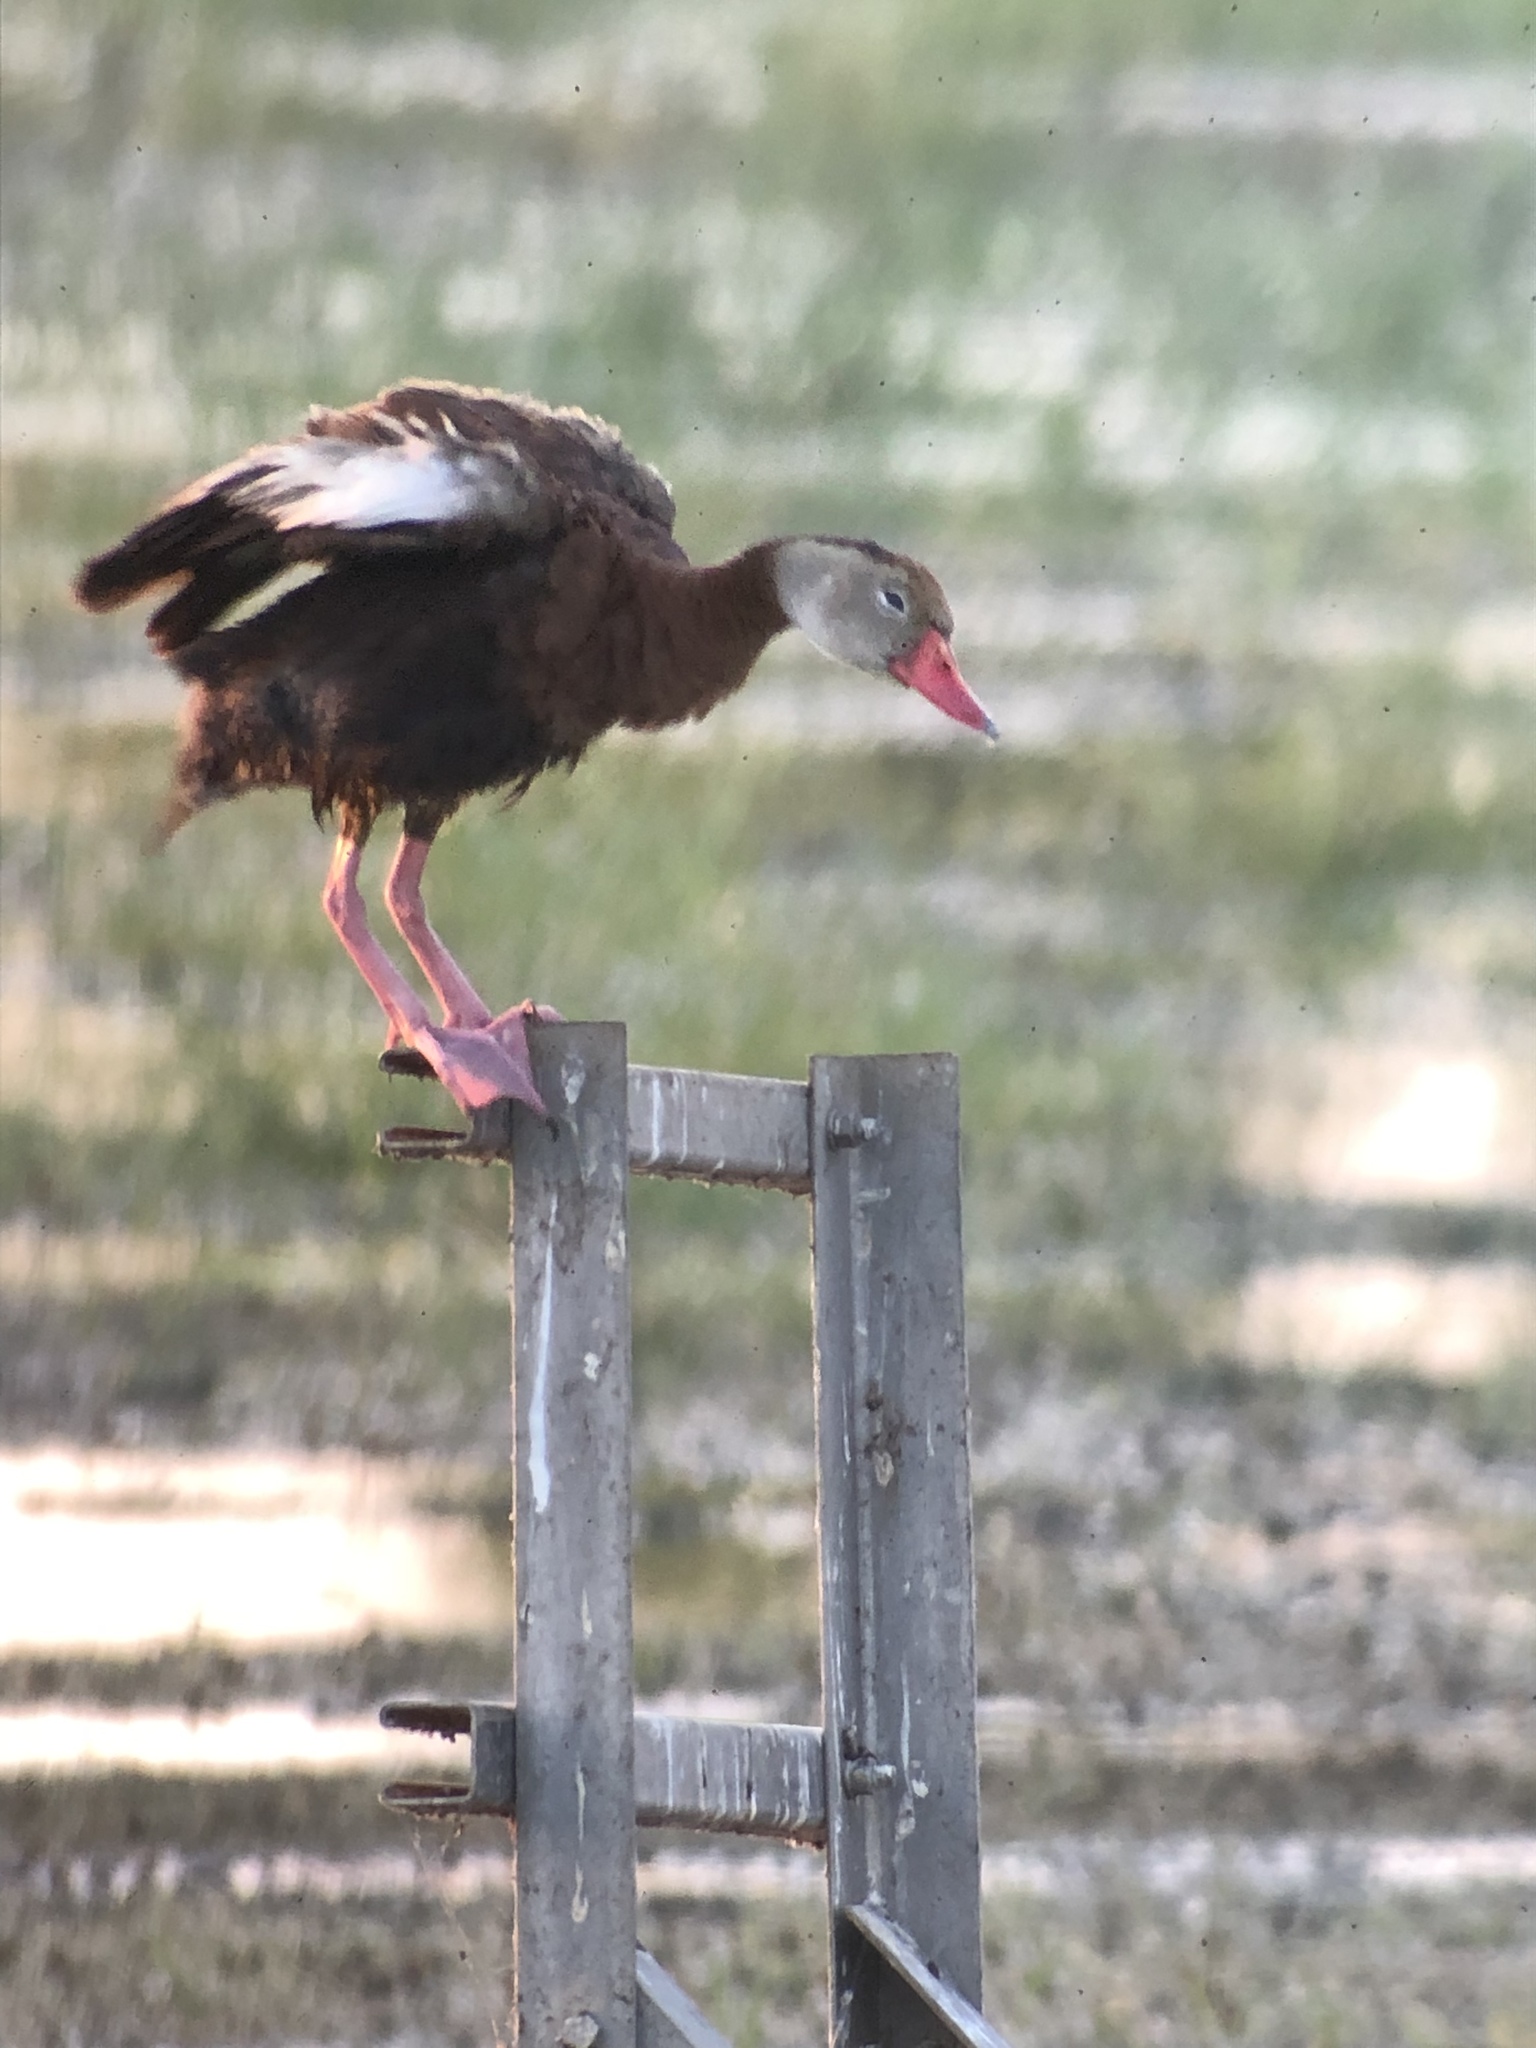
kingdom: Animalia
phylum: Chordata
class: Aves
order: Anseriformes
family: Anatidae
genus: Dendrocygna
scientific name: Dendrocygna autumnalis
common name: Black-bellied whistling duck
